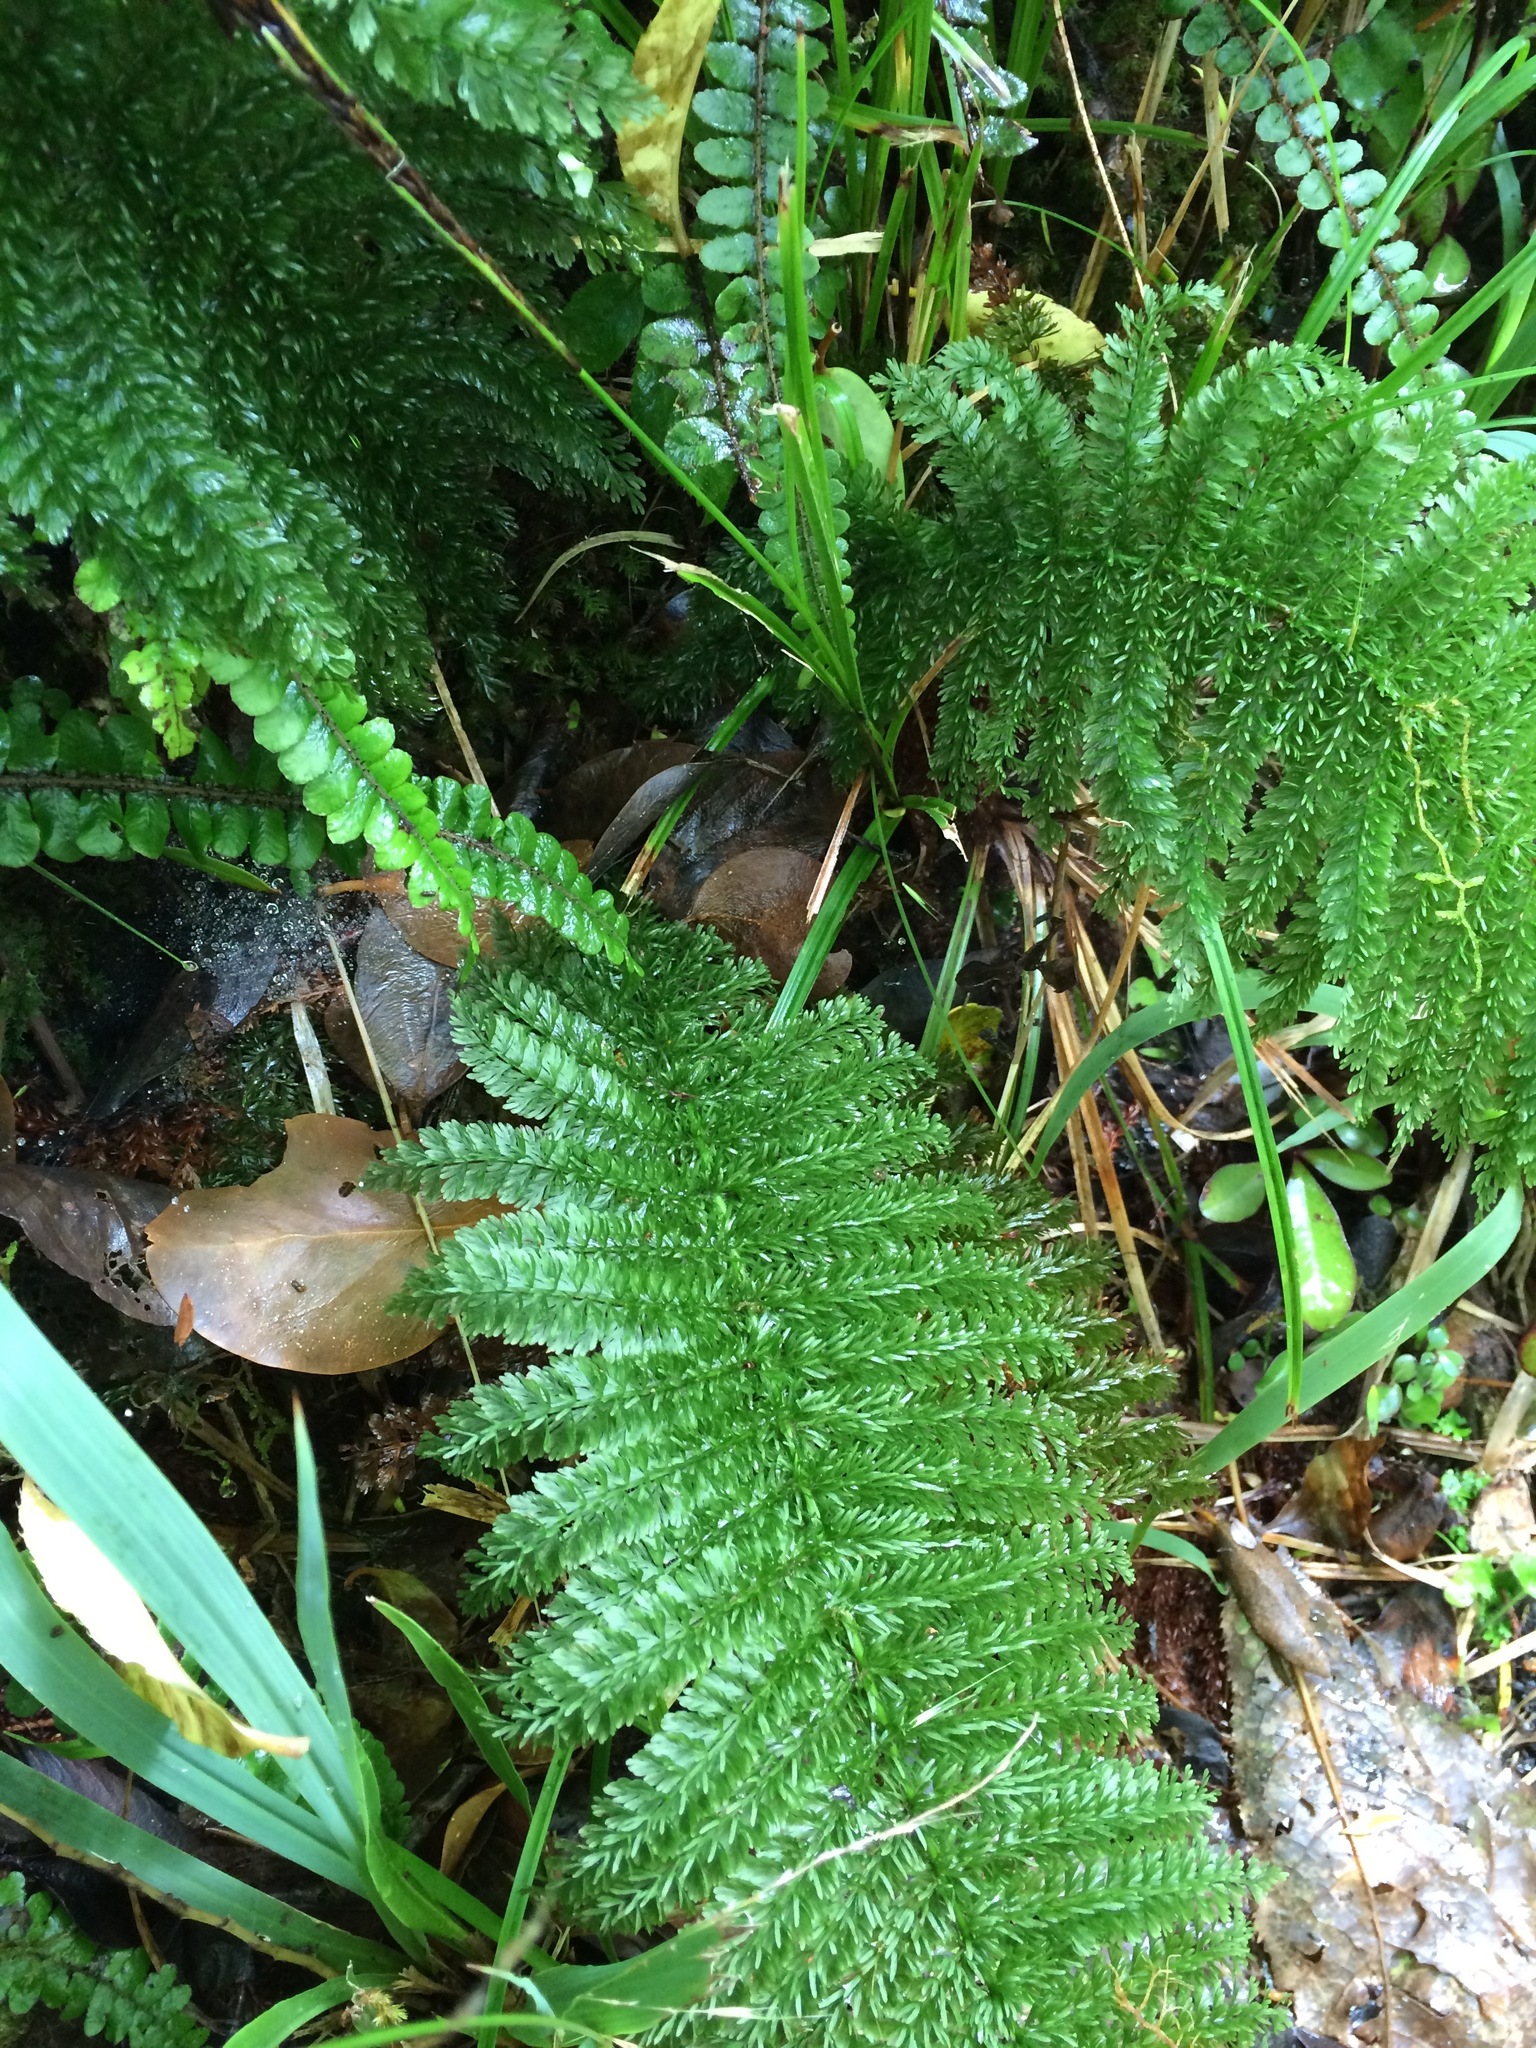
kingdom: Plantae
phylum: Tracheophyta
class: Polypodiopsida
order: Osmundales
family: Osmundaceae
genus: Leptopteris
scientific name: Leptopteris superba
